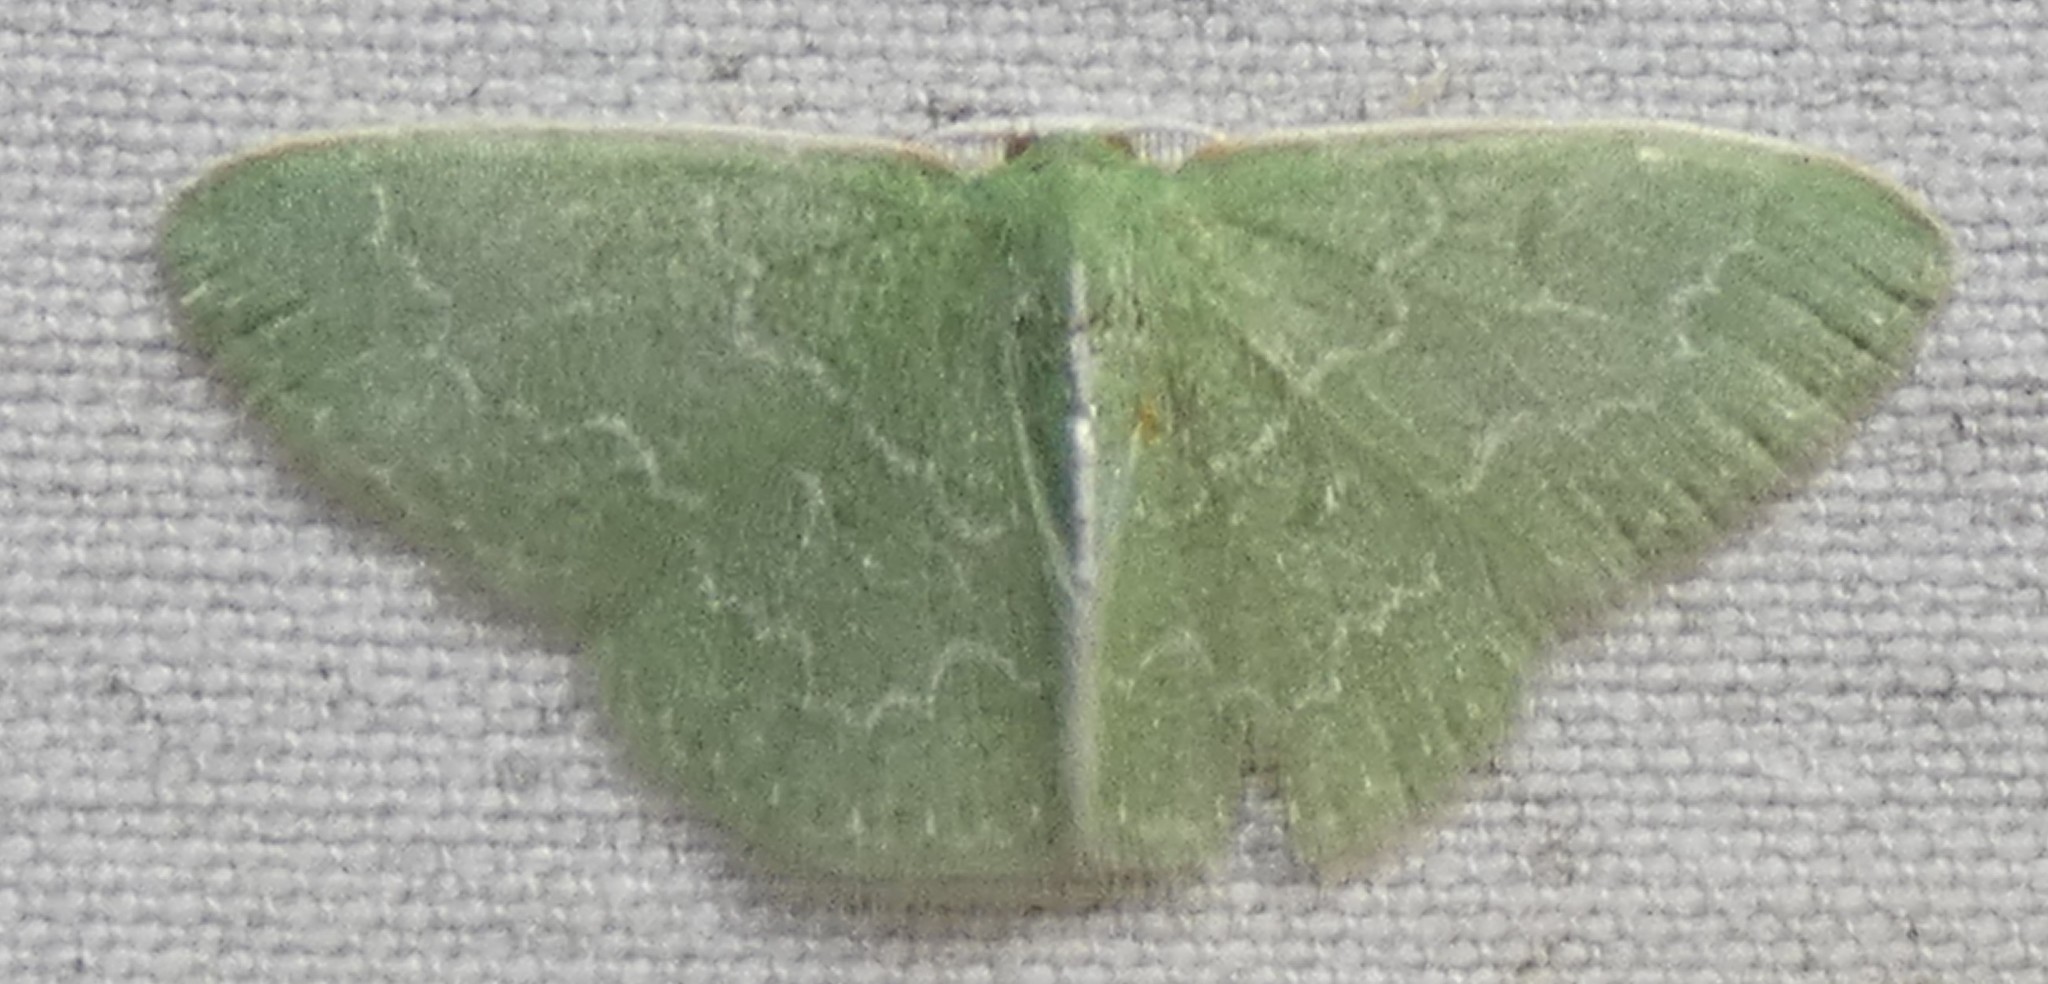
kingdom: Animalia
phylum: Arthropoda
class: Insecta
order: Lepidoptera
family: Geometridae
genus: Synchlora
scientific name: Synchlora frondaria
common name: Southern emerald
